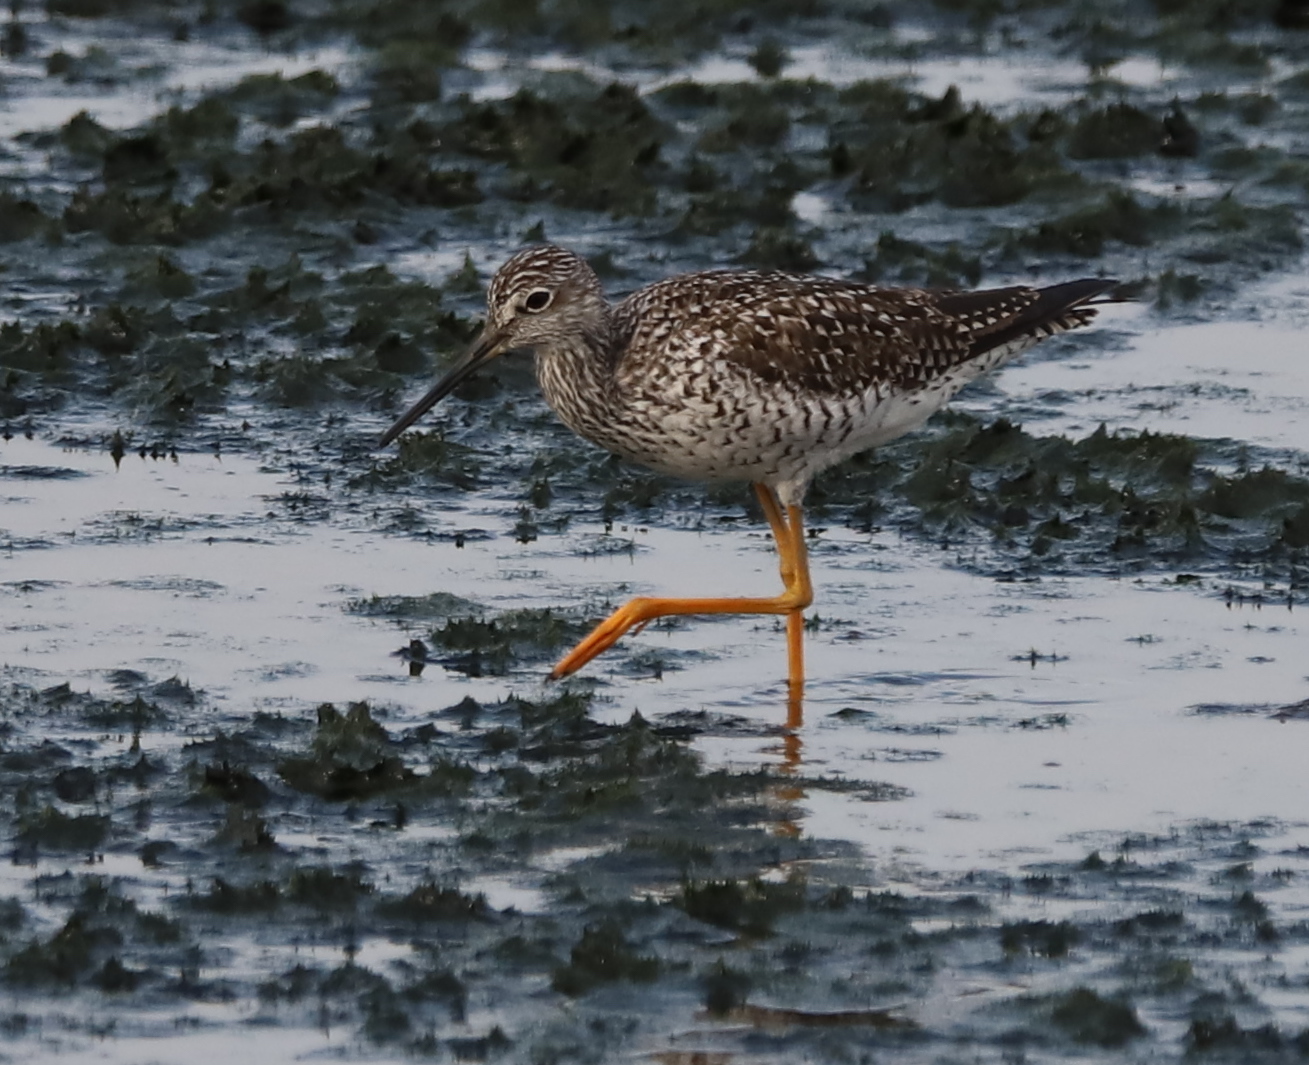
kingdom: Animalia
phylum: Chordata
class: Aves
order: Charadriiformes
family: Scolopacidae
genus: Tringa
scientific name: Tringa melanoleuca
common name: Greater yellowlegs
